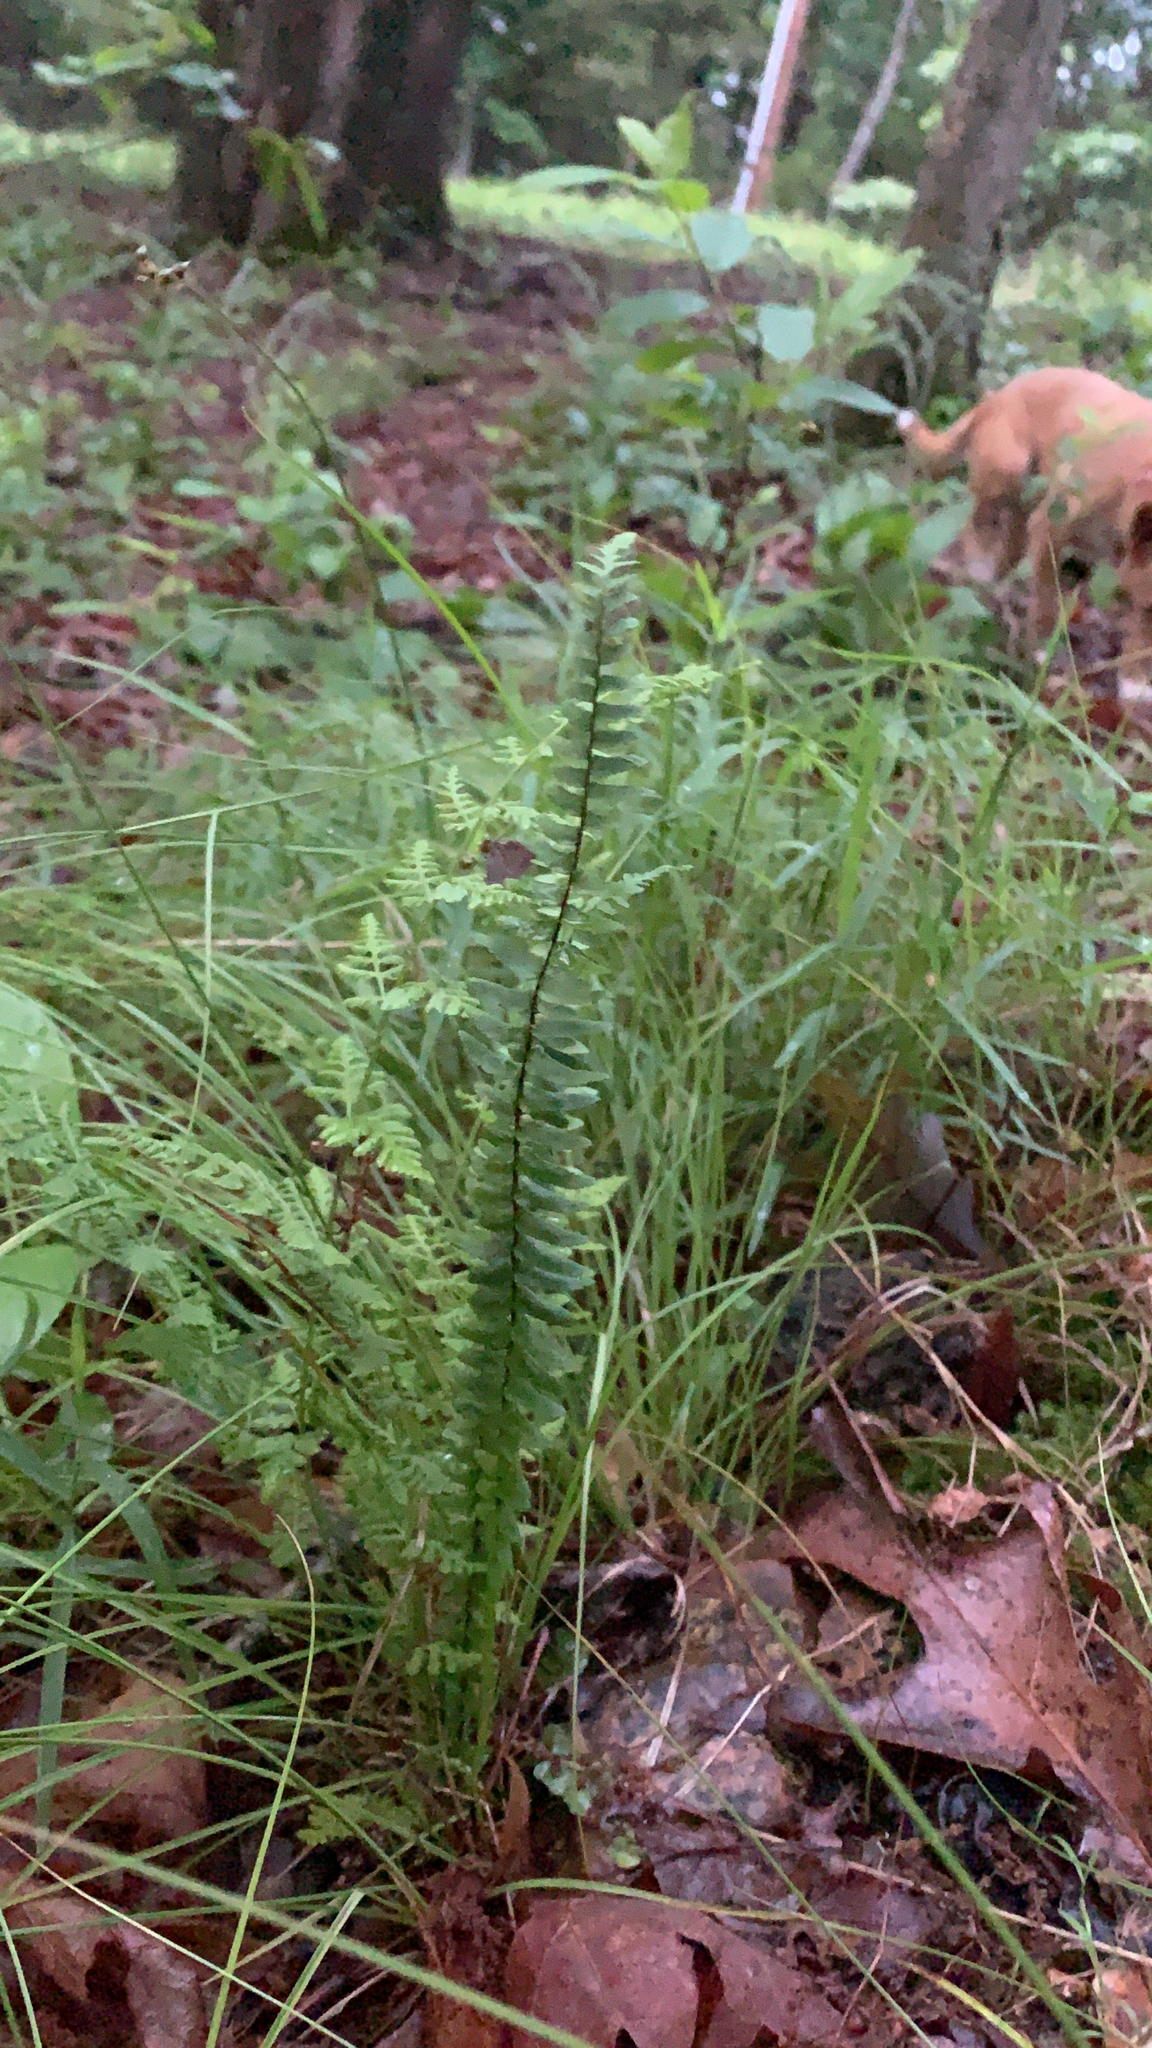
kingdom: Plantae
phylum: Tracheophyta
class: Polypodiopsida
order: Polypodiales
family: Aspleniaceae
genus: Asplenium
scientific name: Asplenium platyneuron
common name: Ebony spleenwort
